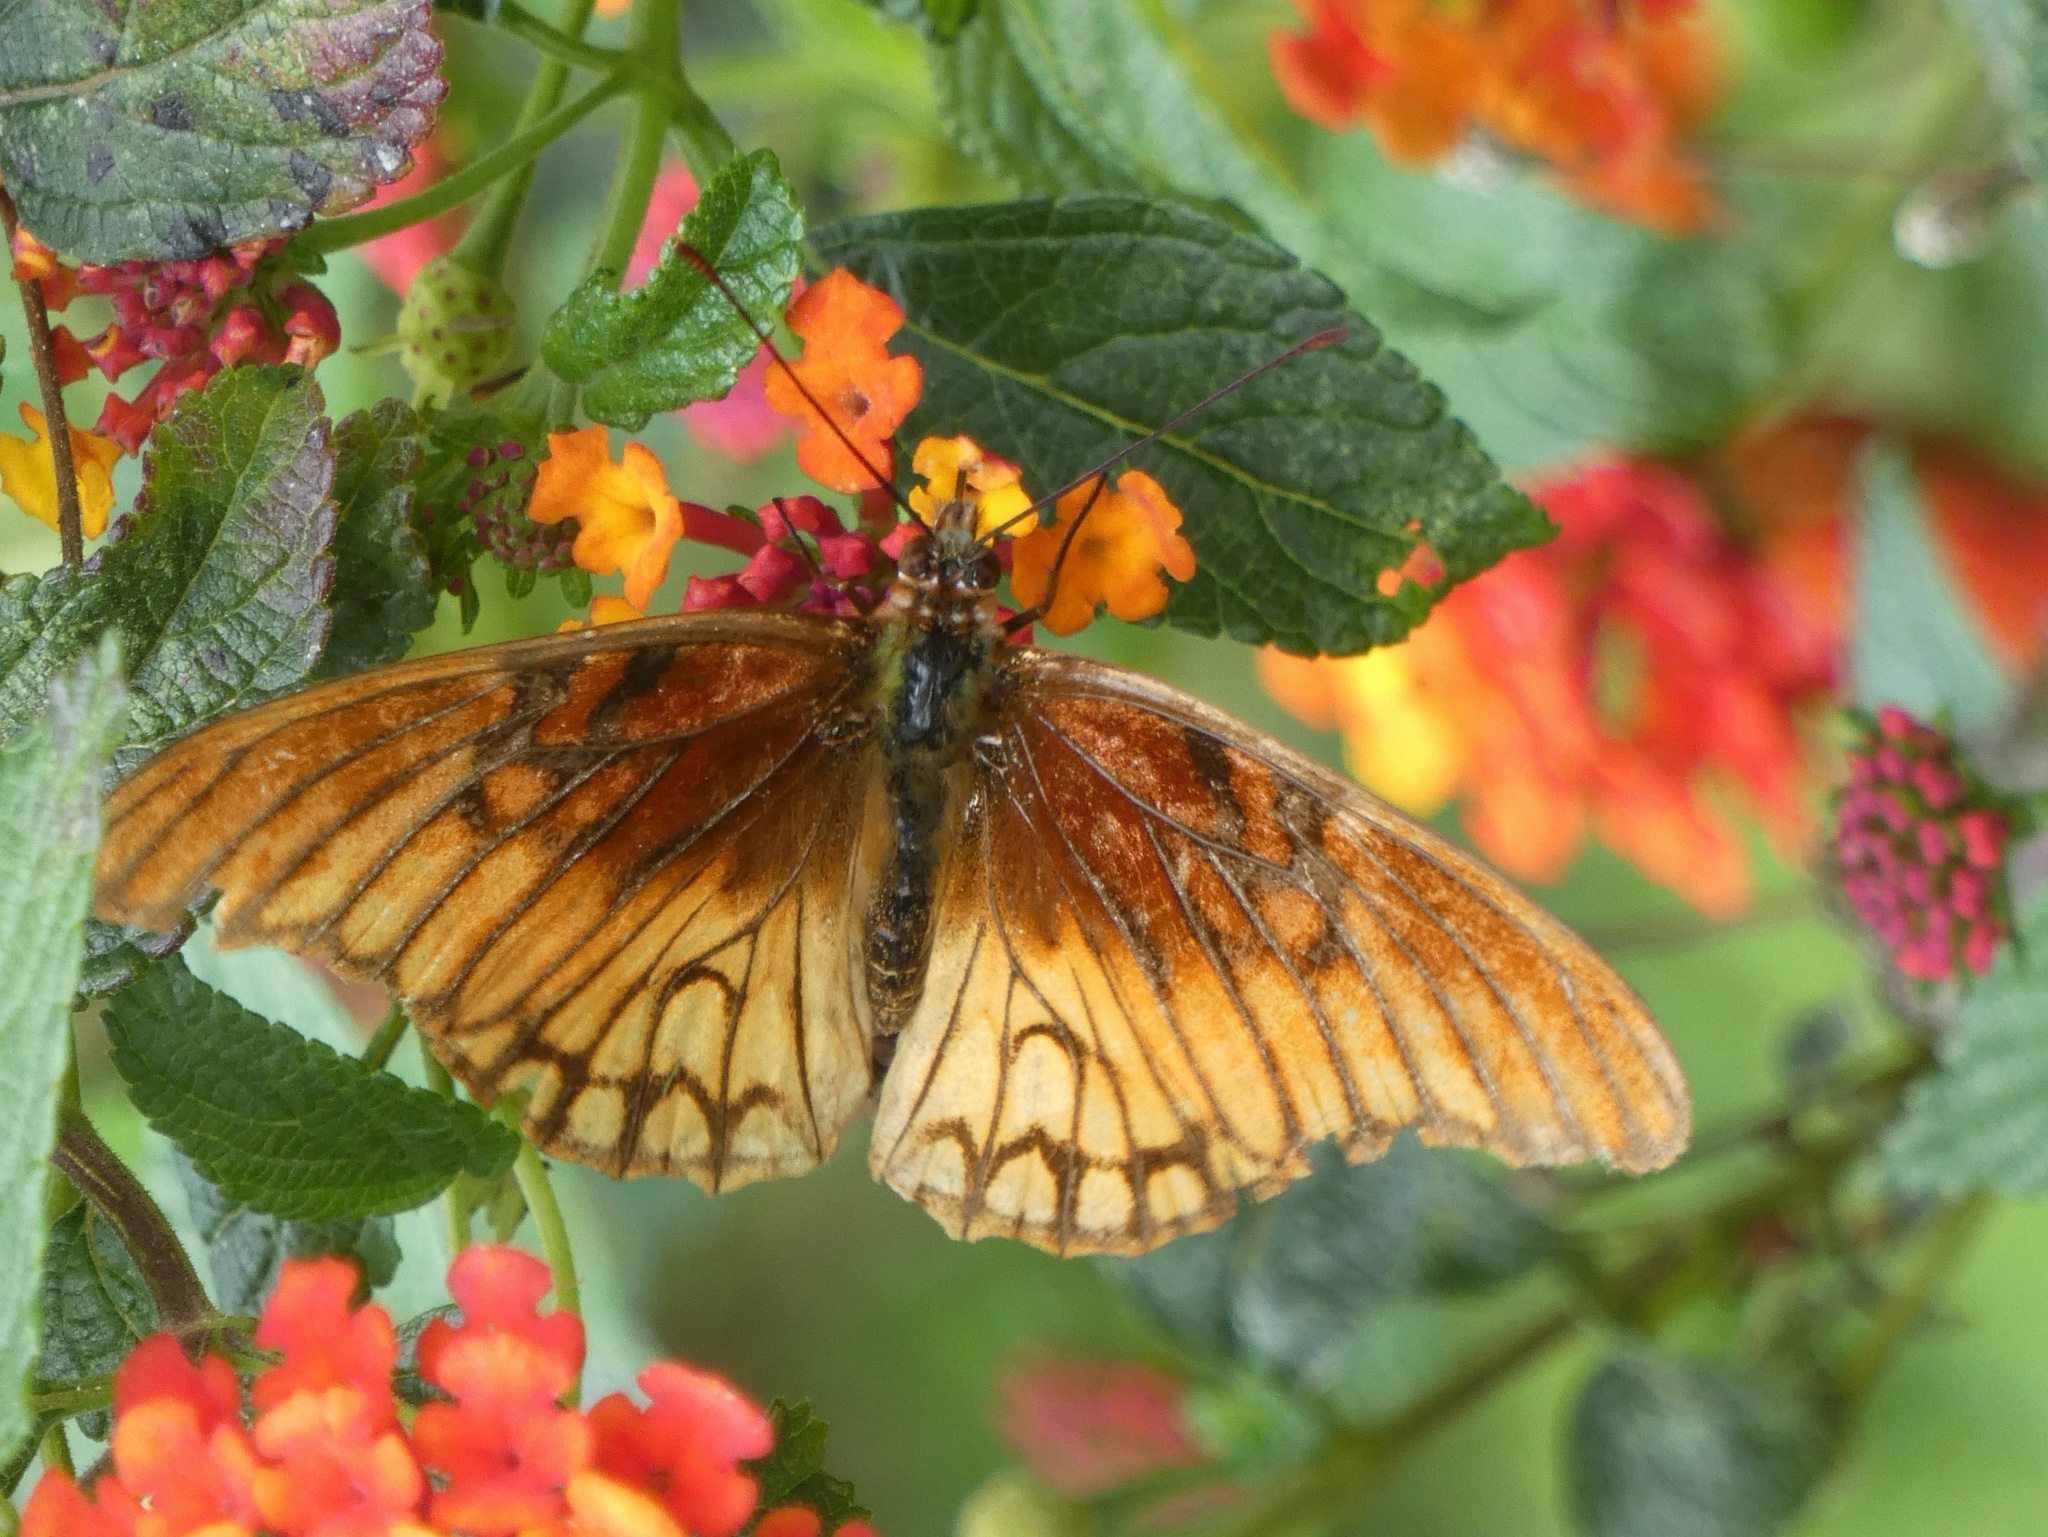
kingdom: Animalia
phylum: Arthropoda
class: Insecta
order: Lepidoptera
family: Nymphalidae
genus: Dione
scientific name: Dione moneta
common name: Mexican silverspot
